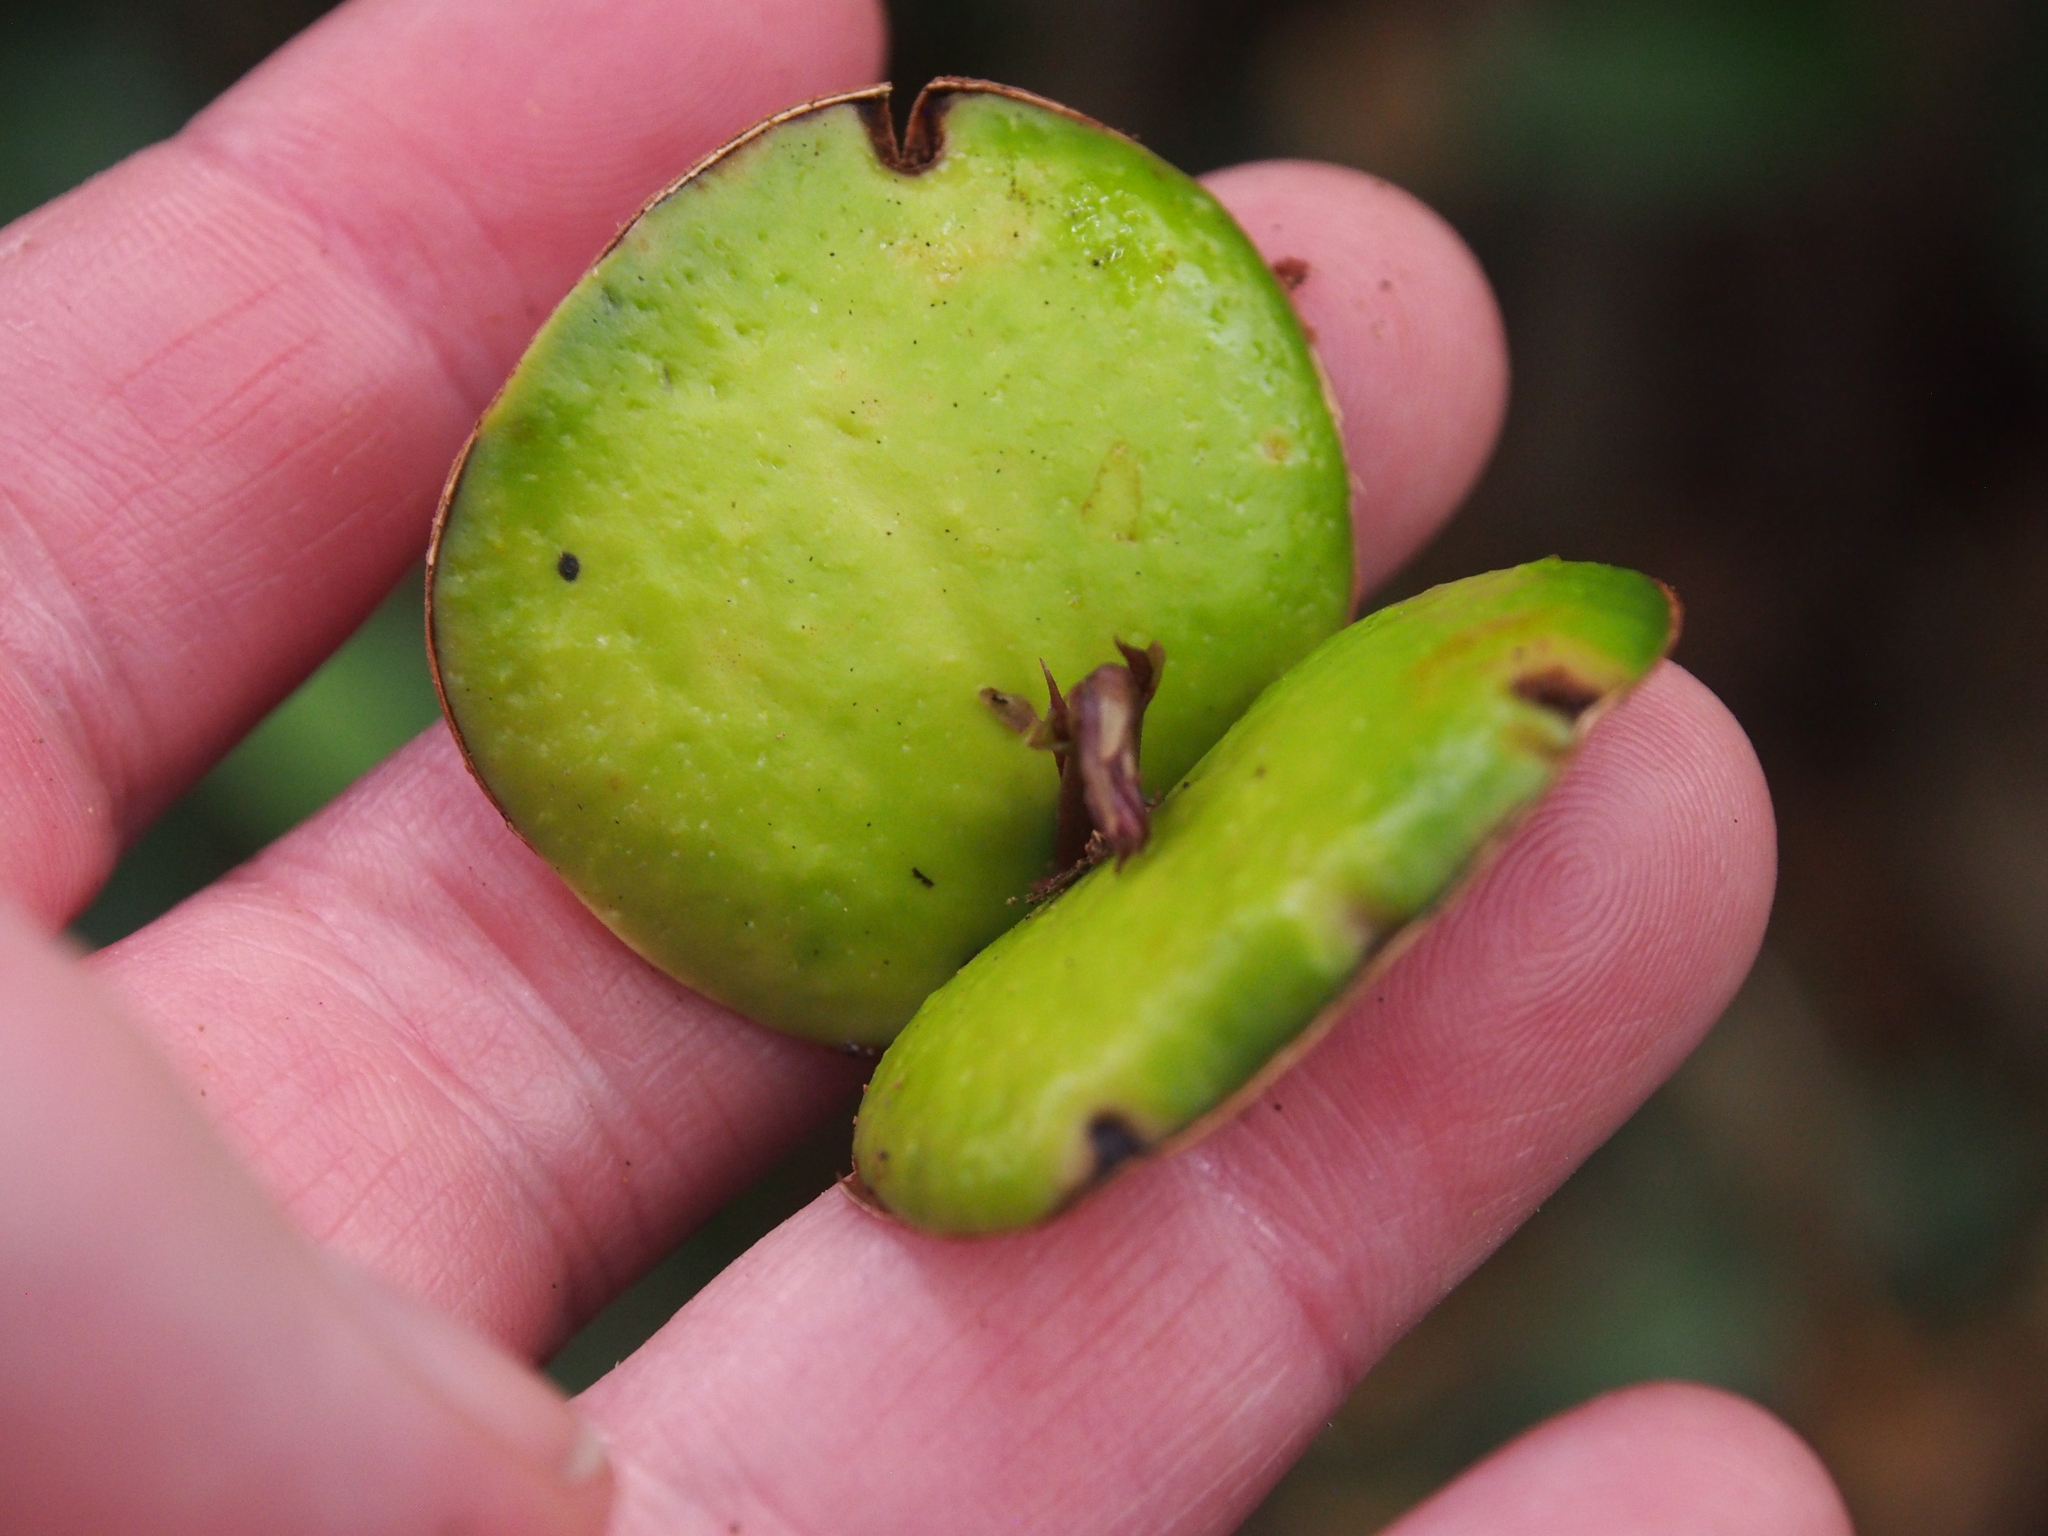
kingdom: Plantae
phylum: Tracheophyta
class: Magnoliopsida
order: Fabales
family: Fabaceae
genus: Pentaclethra
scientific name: Pentaclethra macroloba
